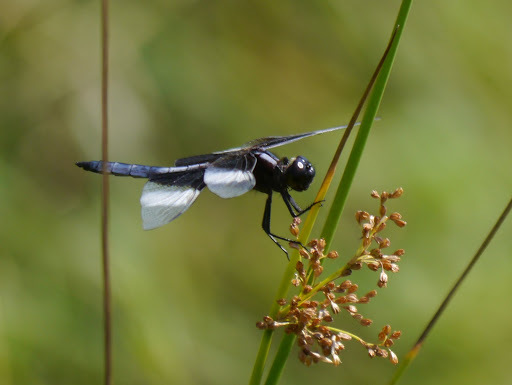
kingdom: Animalia
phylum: Arthropoda
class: Insecta
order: Odonata
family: Libellulidae
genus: Libellula
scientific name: Libellula luctuosa
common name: Widow skimmer
